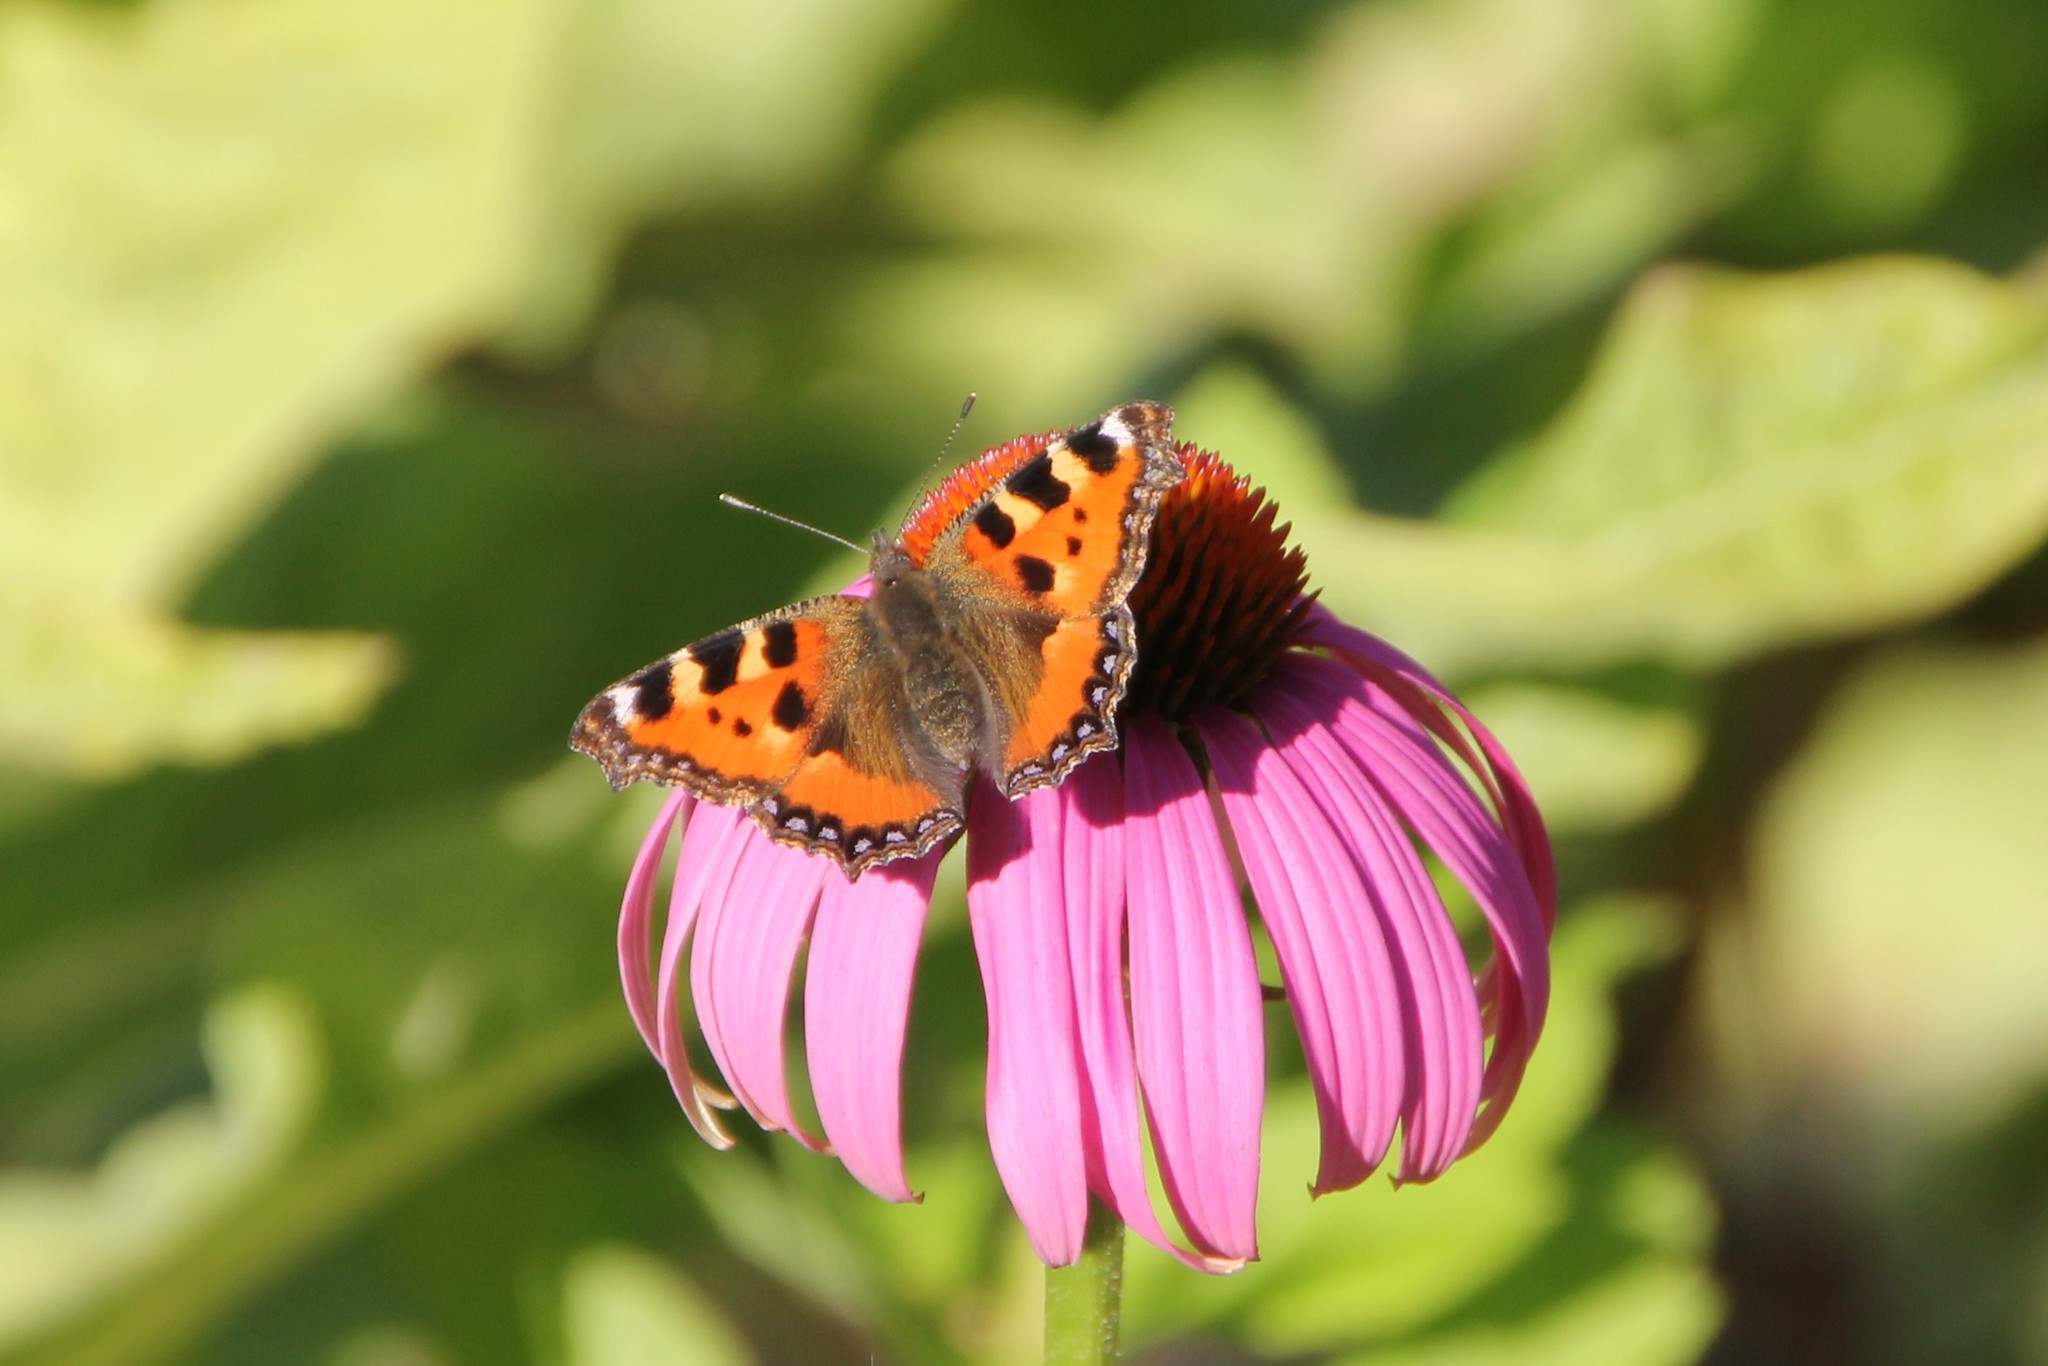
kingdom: Animalia
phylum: Arthropoda
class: Insecta
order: Lepidoptera
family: Nymphalidae
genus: Aglais
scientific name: Aglais urticae
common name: Small tortoiseshell
